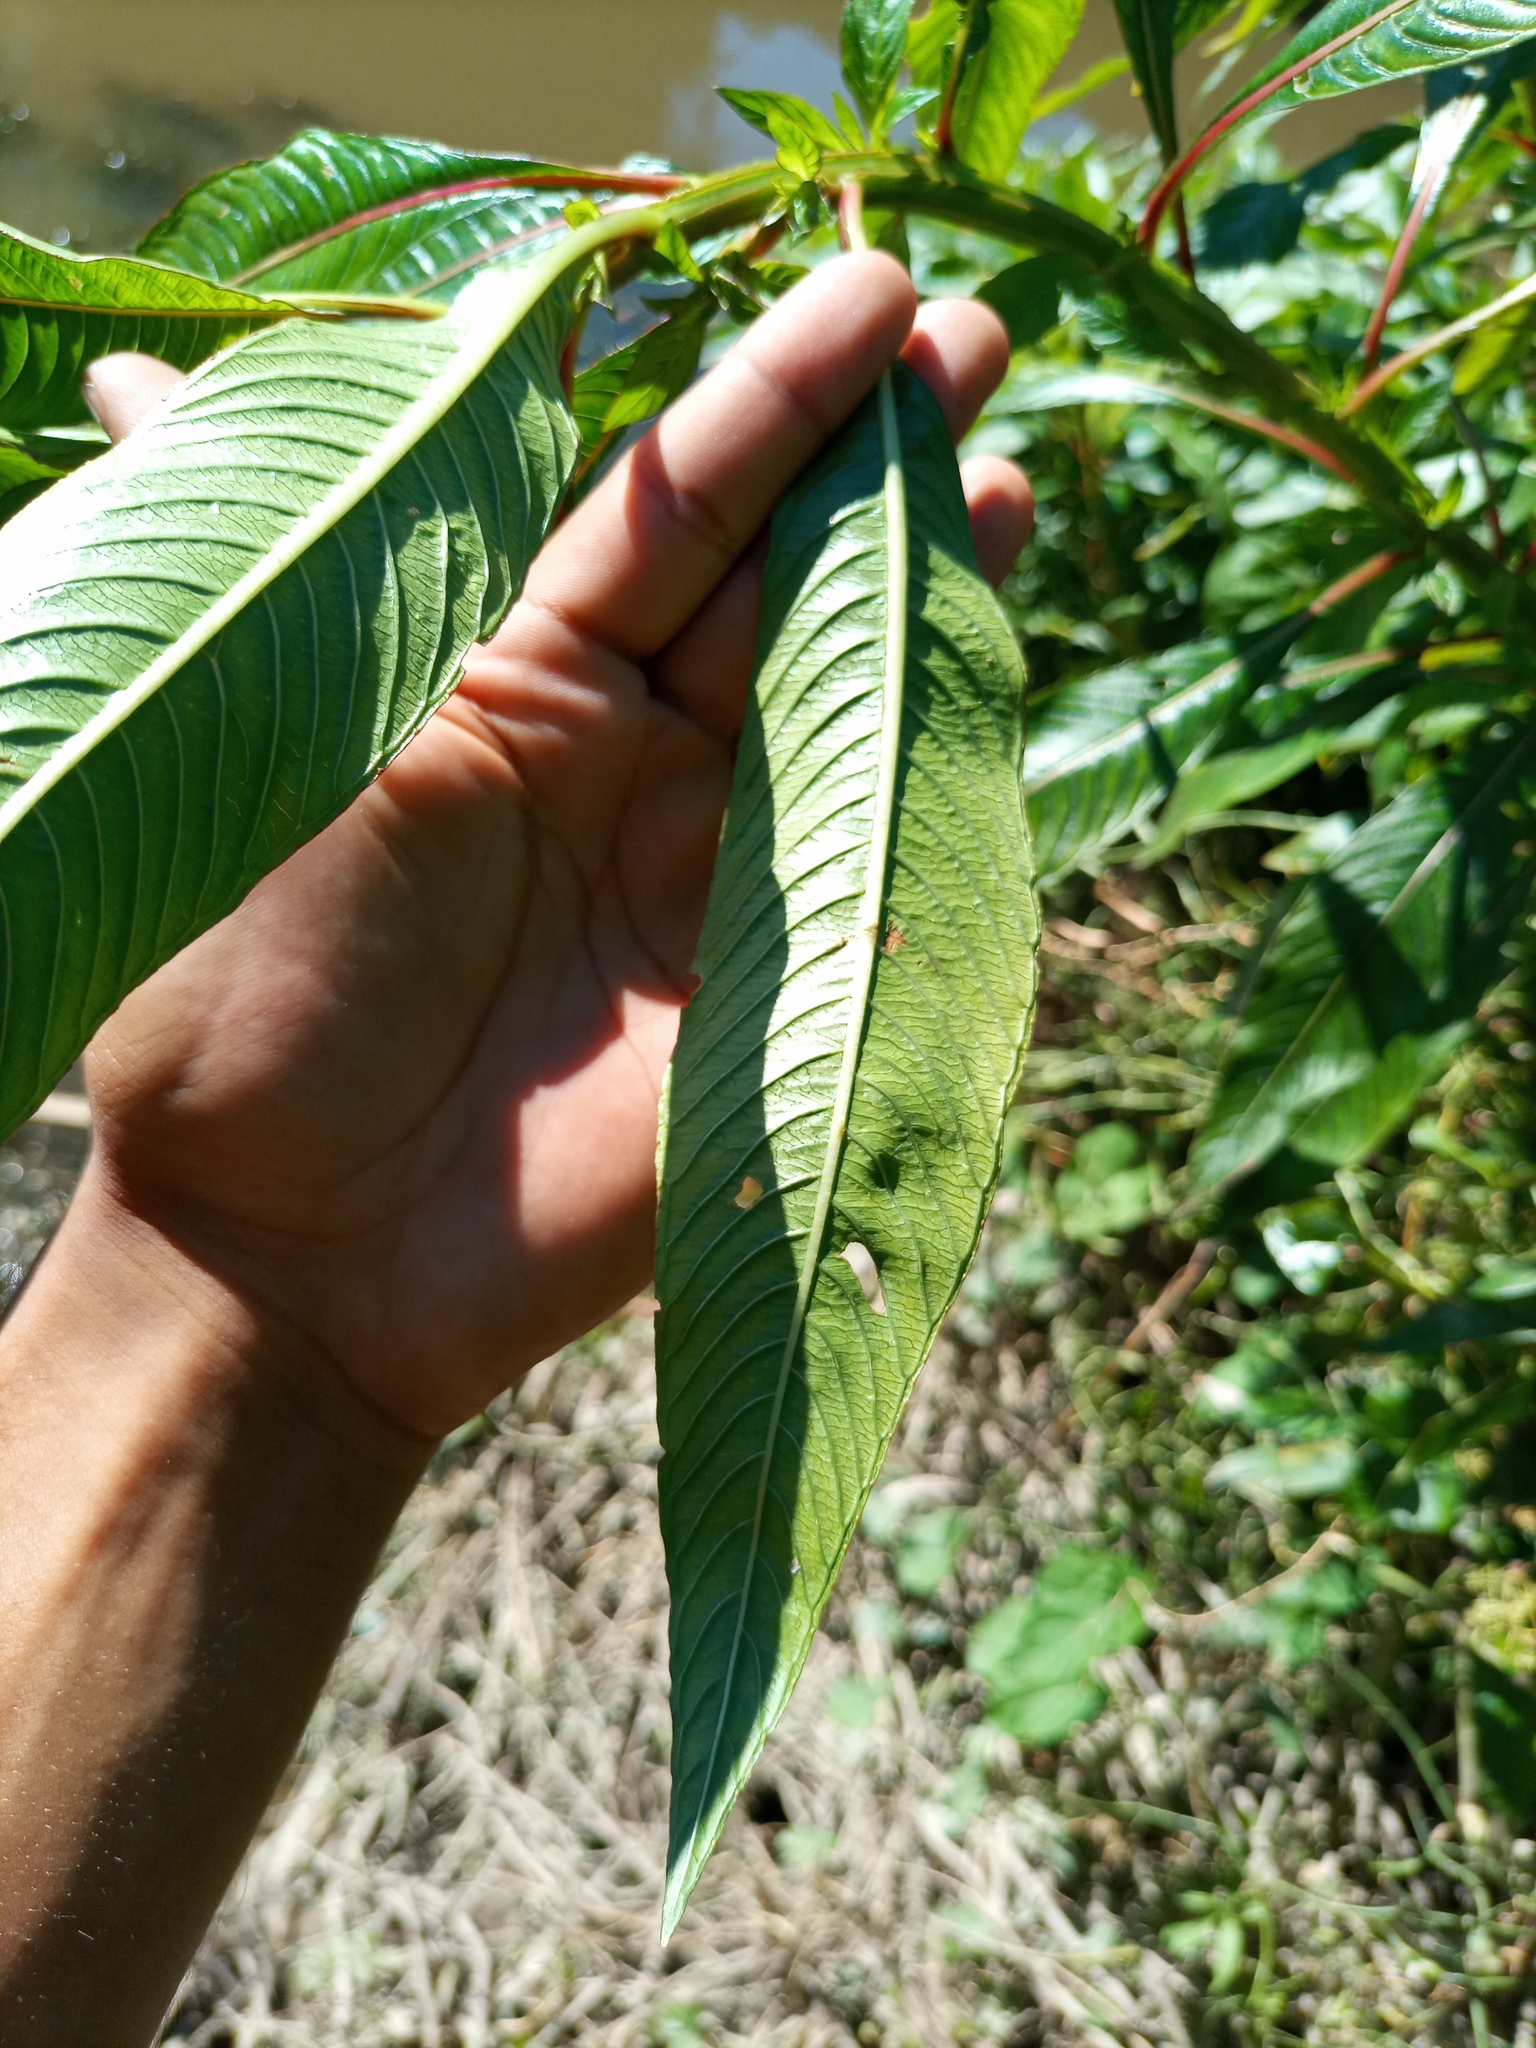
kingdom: Plantae
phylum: Tracheophyta
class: Magnoliopsida
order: Myrtales
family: Onagraceae
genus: Ludwigia
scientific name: Ludwigia elegans
